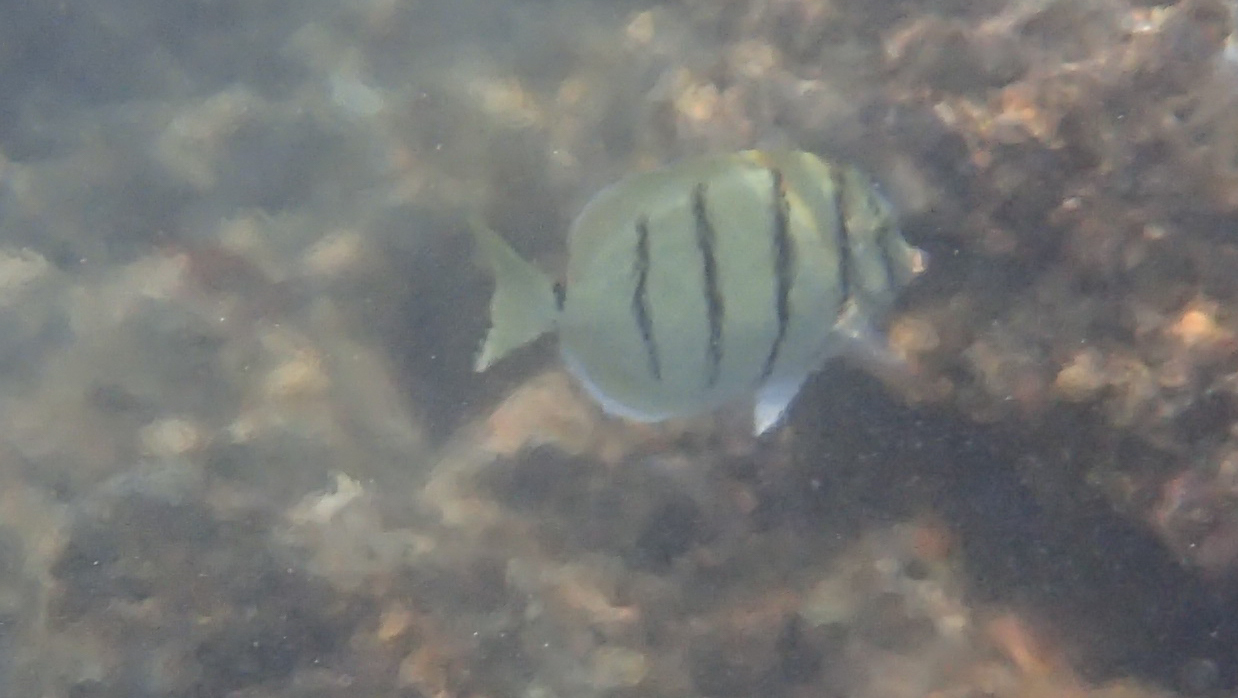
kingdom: Animalia
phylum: Chordata
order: Perciformes
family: Acanthuridae
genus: Acanthurus
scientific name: Acanthurus triostegus
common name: Convict surgeonfish
